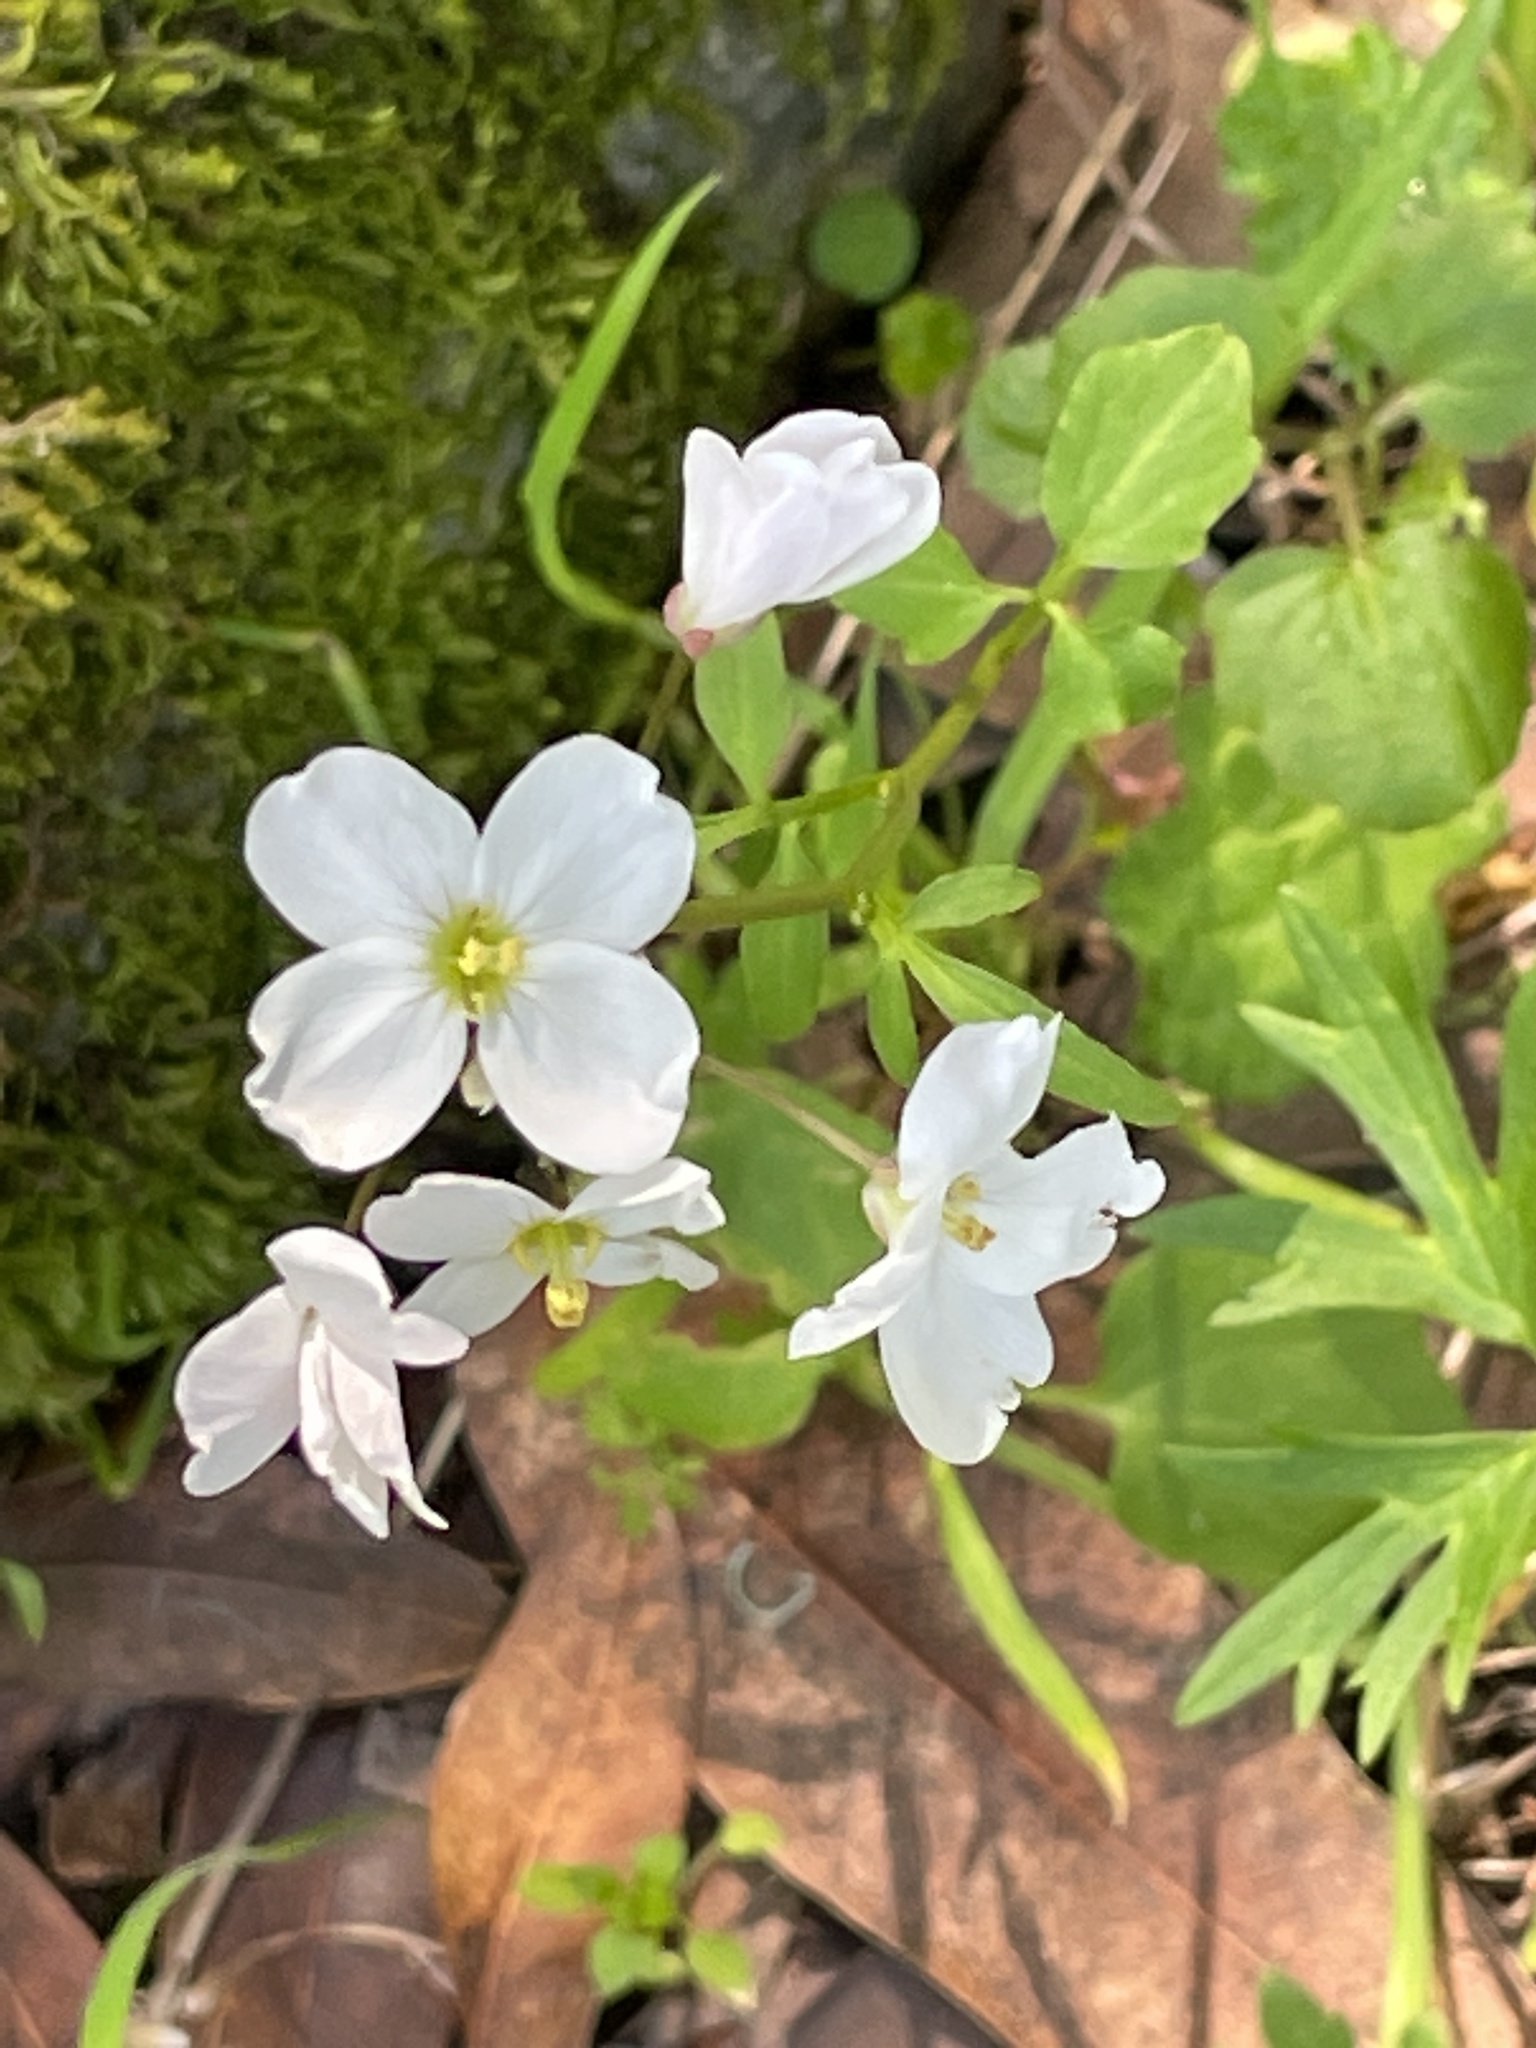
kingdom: Plantae
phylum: Tracheophyta
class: Magnoliopsida
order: Brassicales
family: Brassicaceae
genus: Cardamine
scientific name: Cardamine californica
